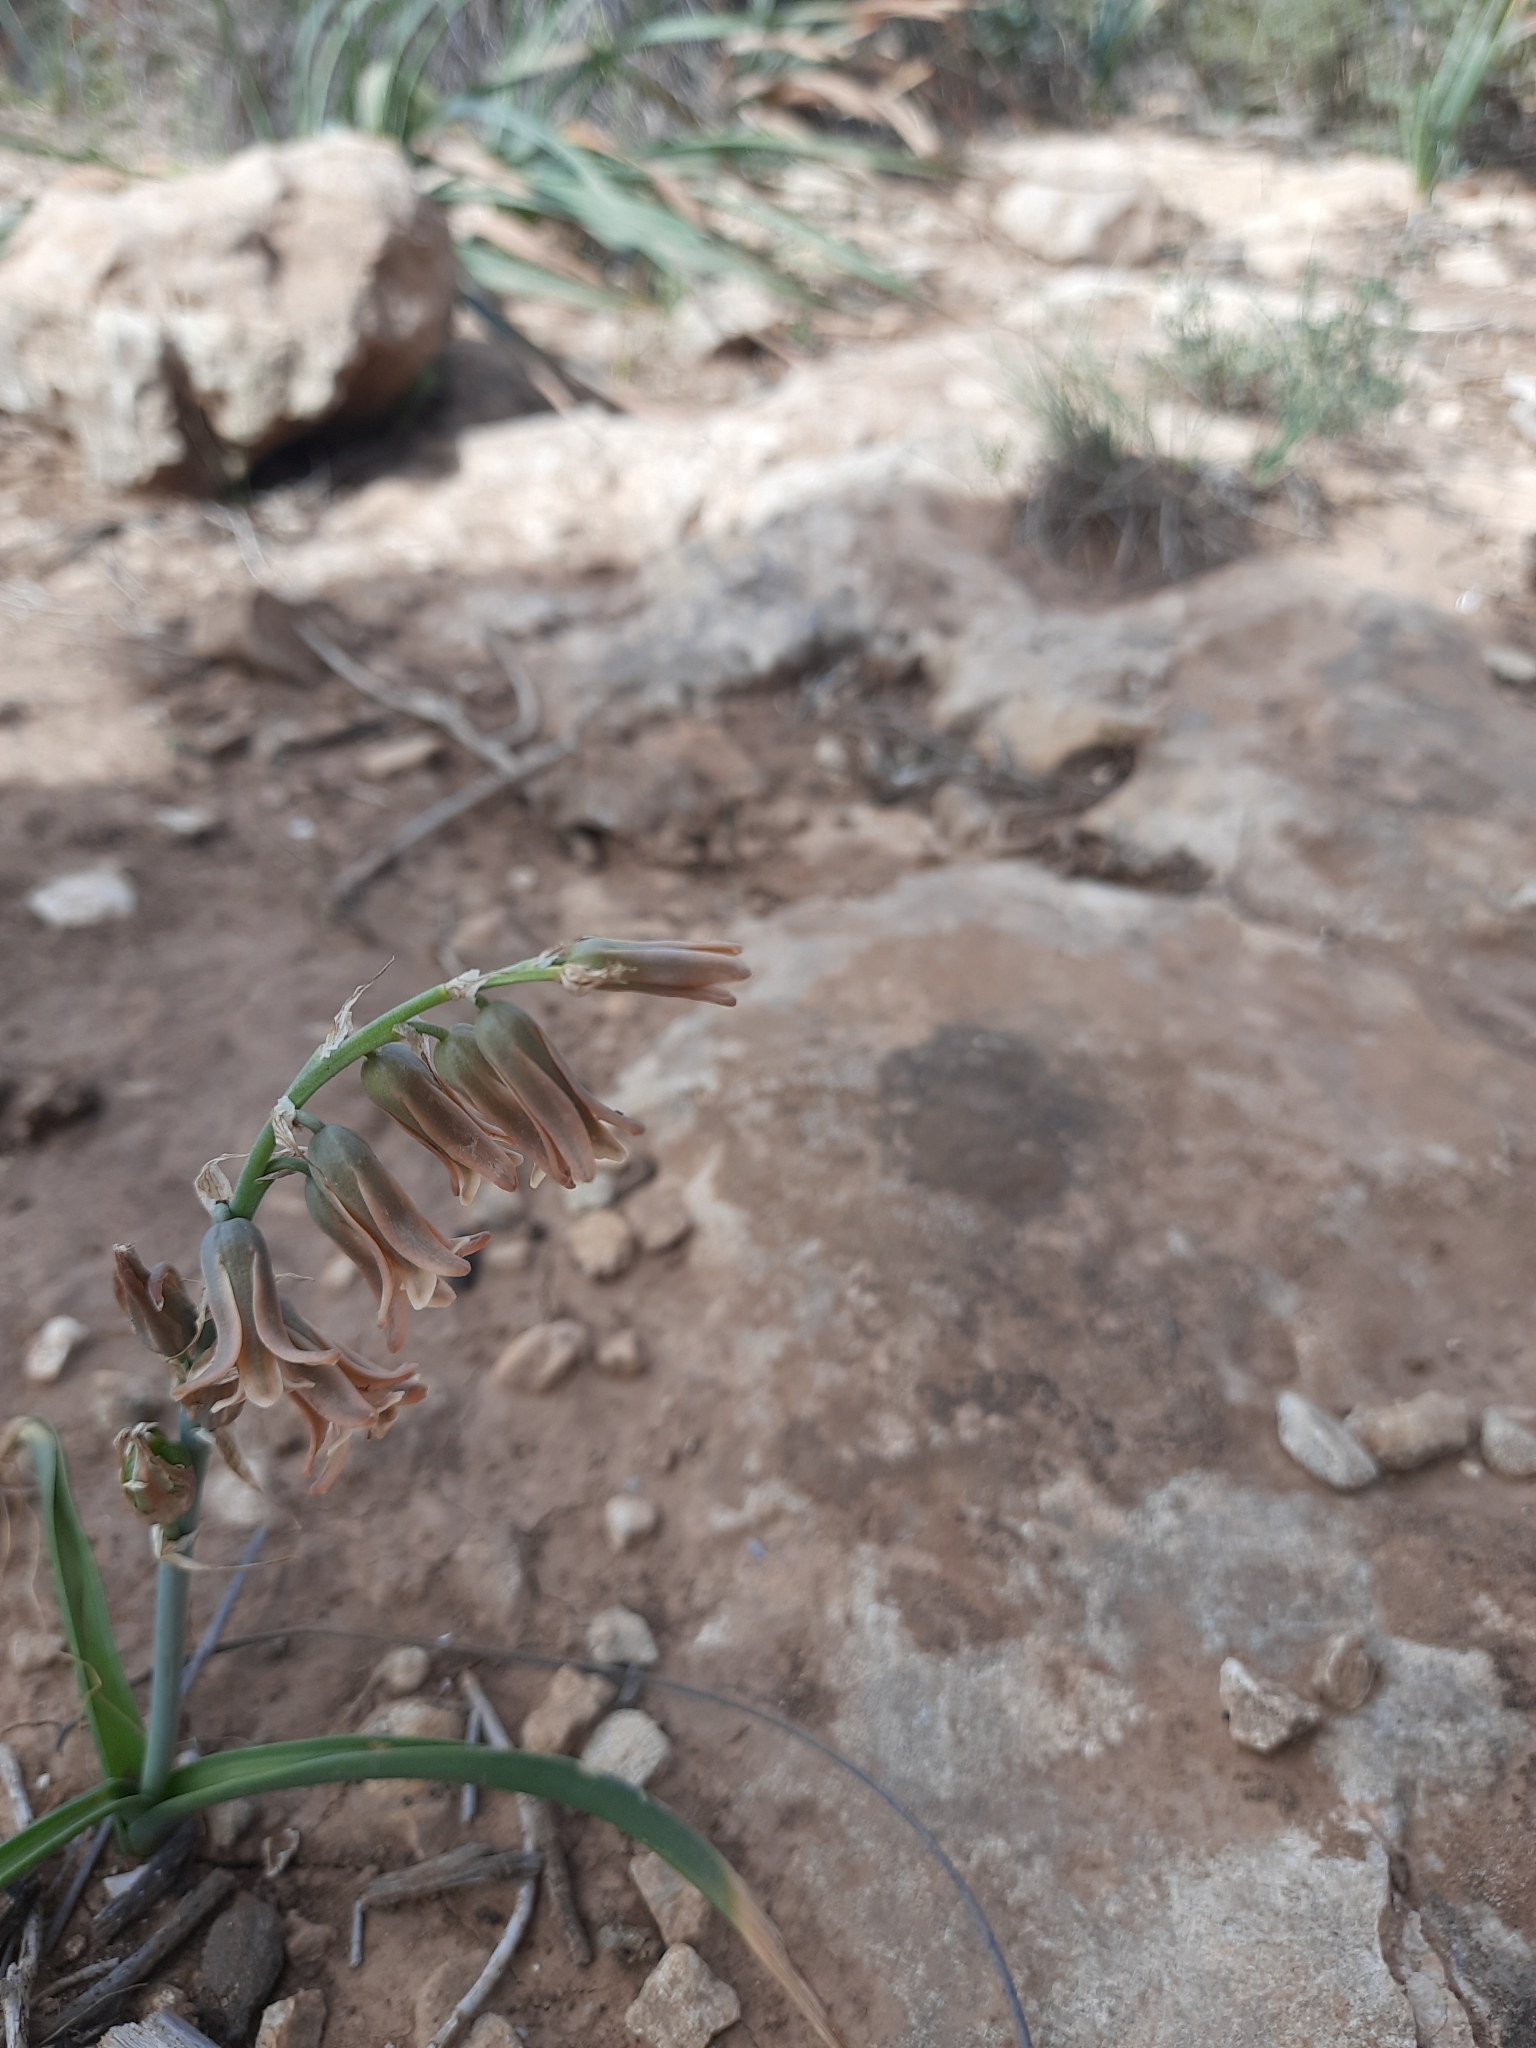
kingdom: Plantae
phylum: Tracheophyta
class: Liliopsida
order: Asparagales
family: Asparagaceae
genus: Dipcadi
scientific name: Dipcadi serotinum
